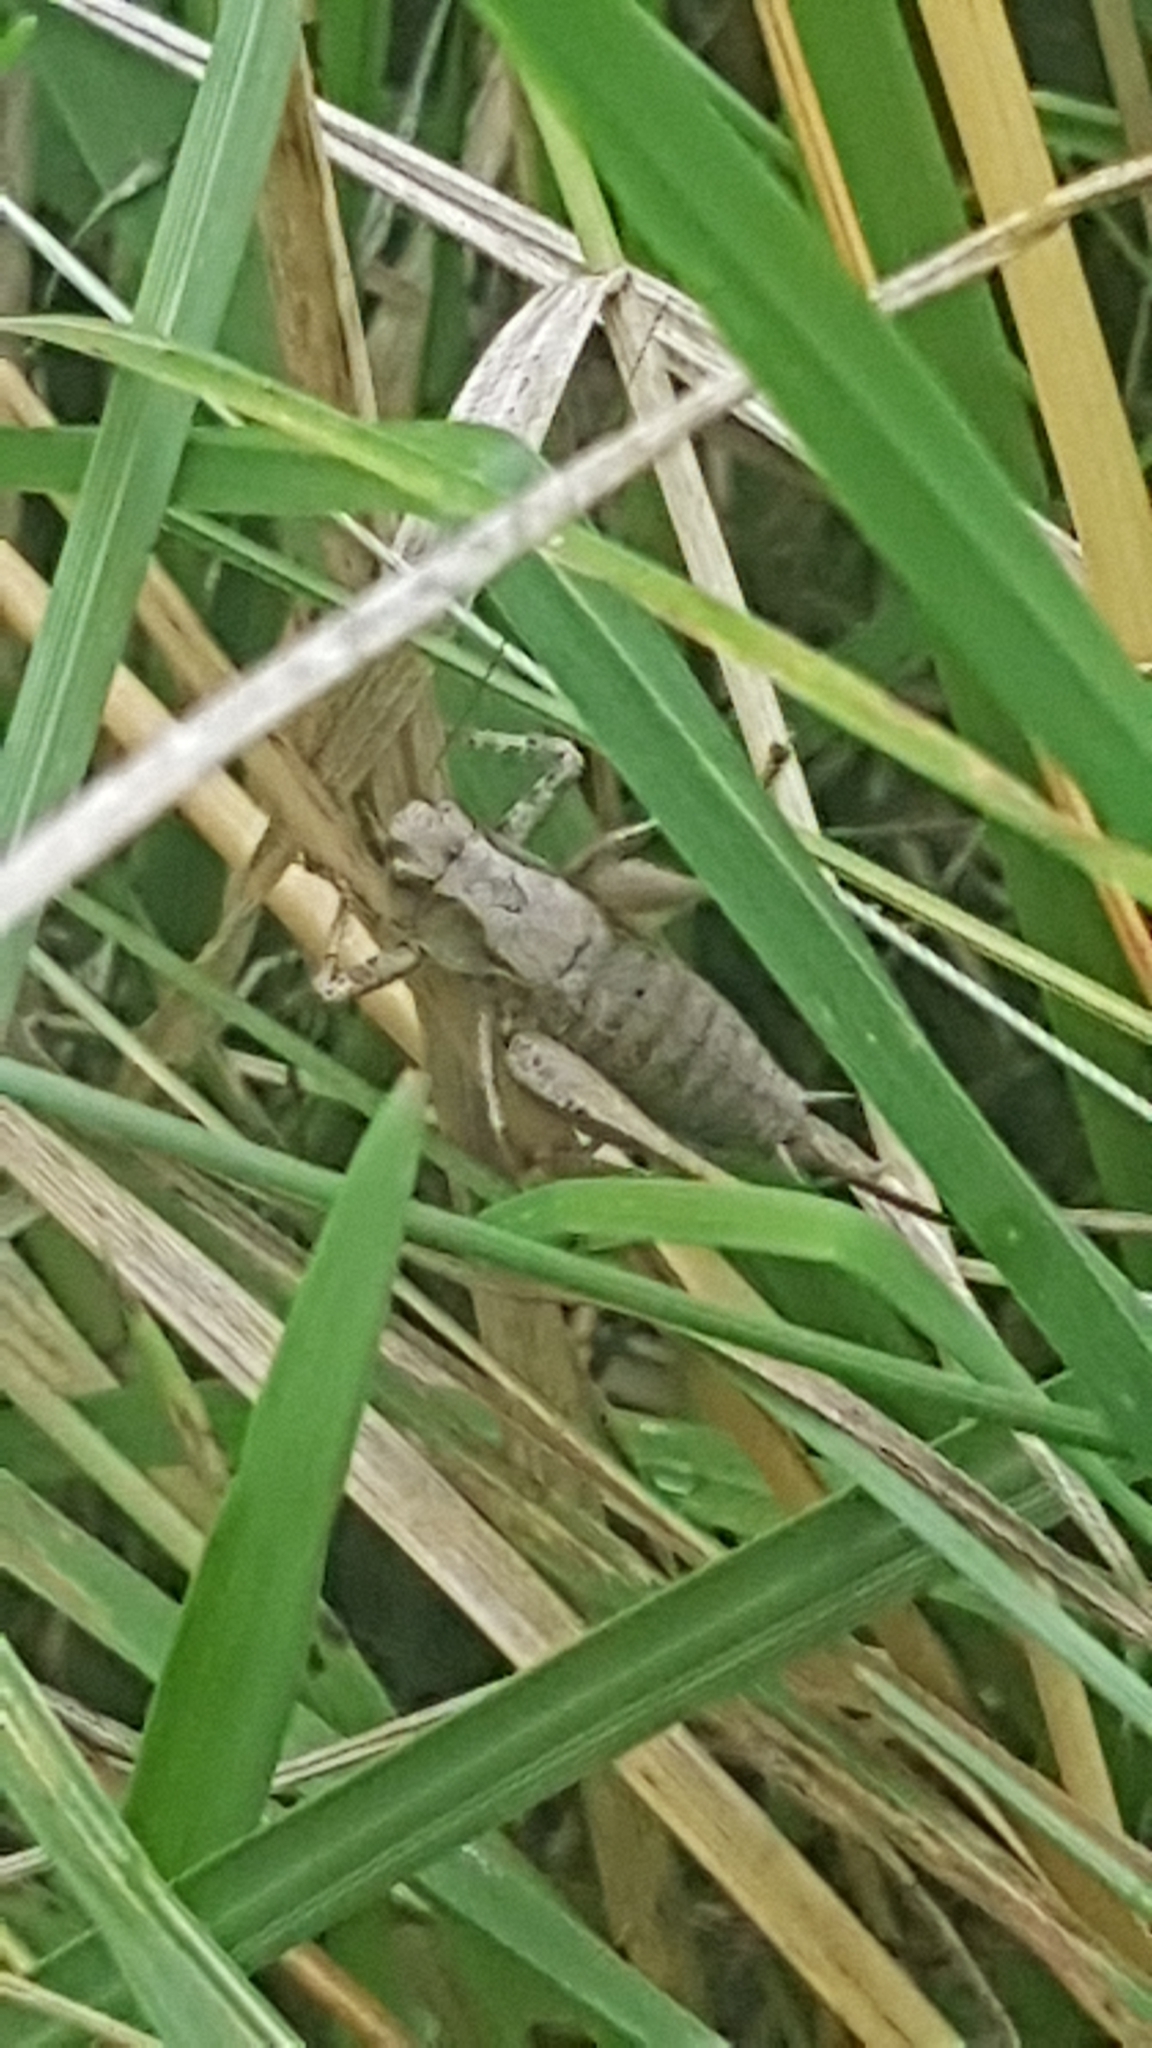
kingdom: Animalia
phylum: Arthropoda
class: Insecta
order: Orthoptera
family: Tettigoniidae
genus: Pholidoptera
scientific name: Pholidoptera griseoaptera
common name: Dark bush-cricket
